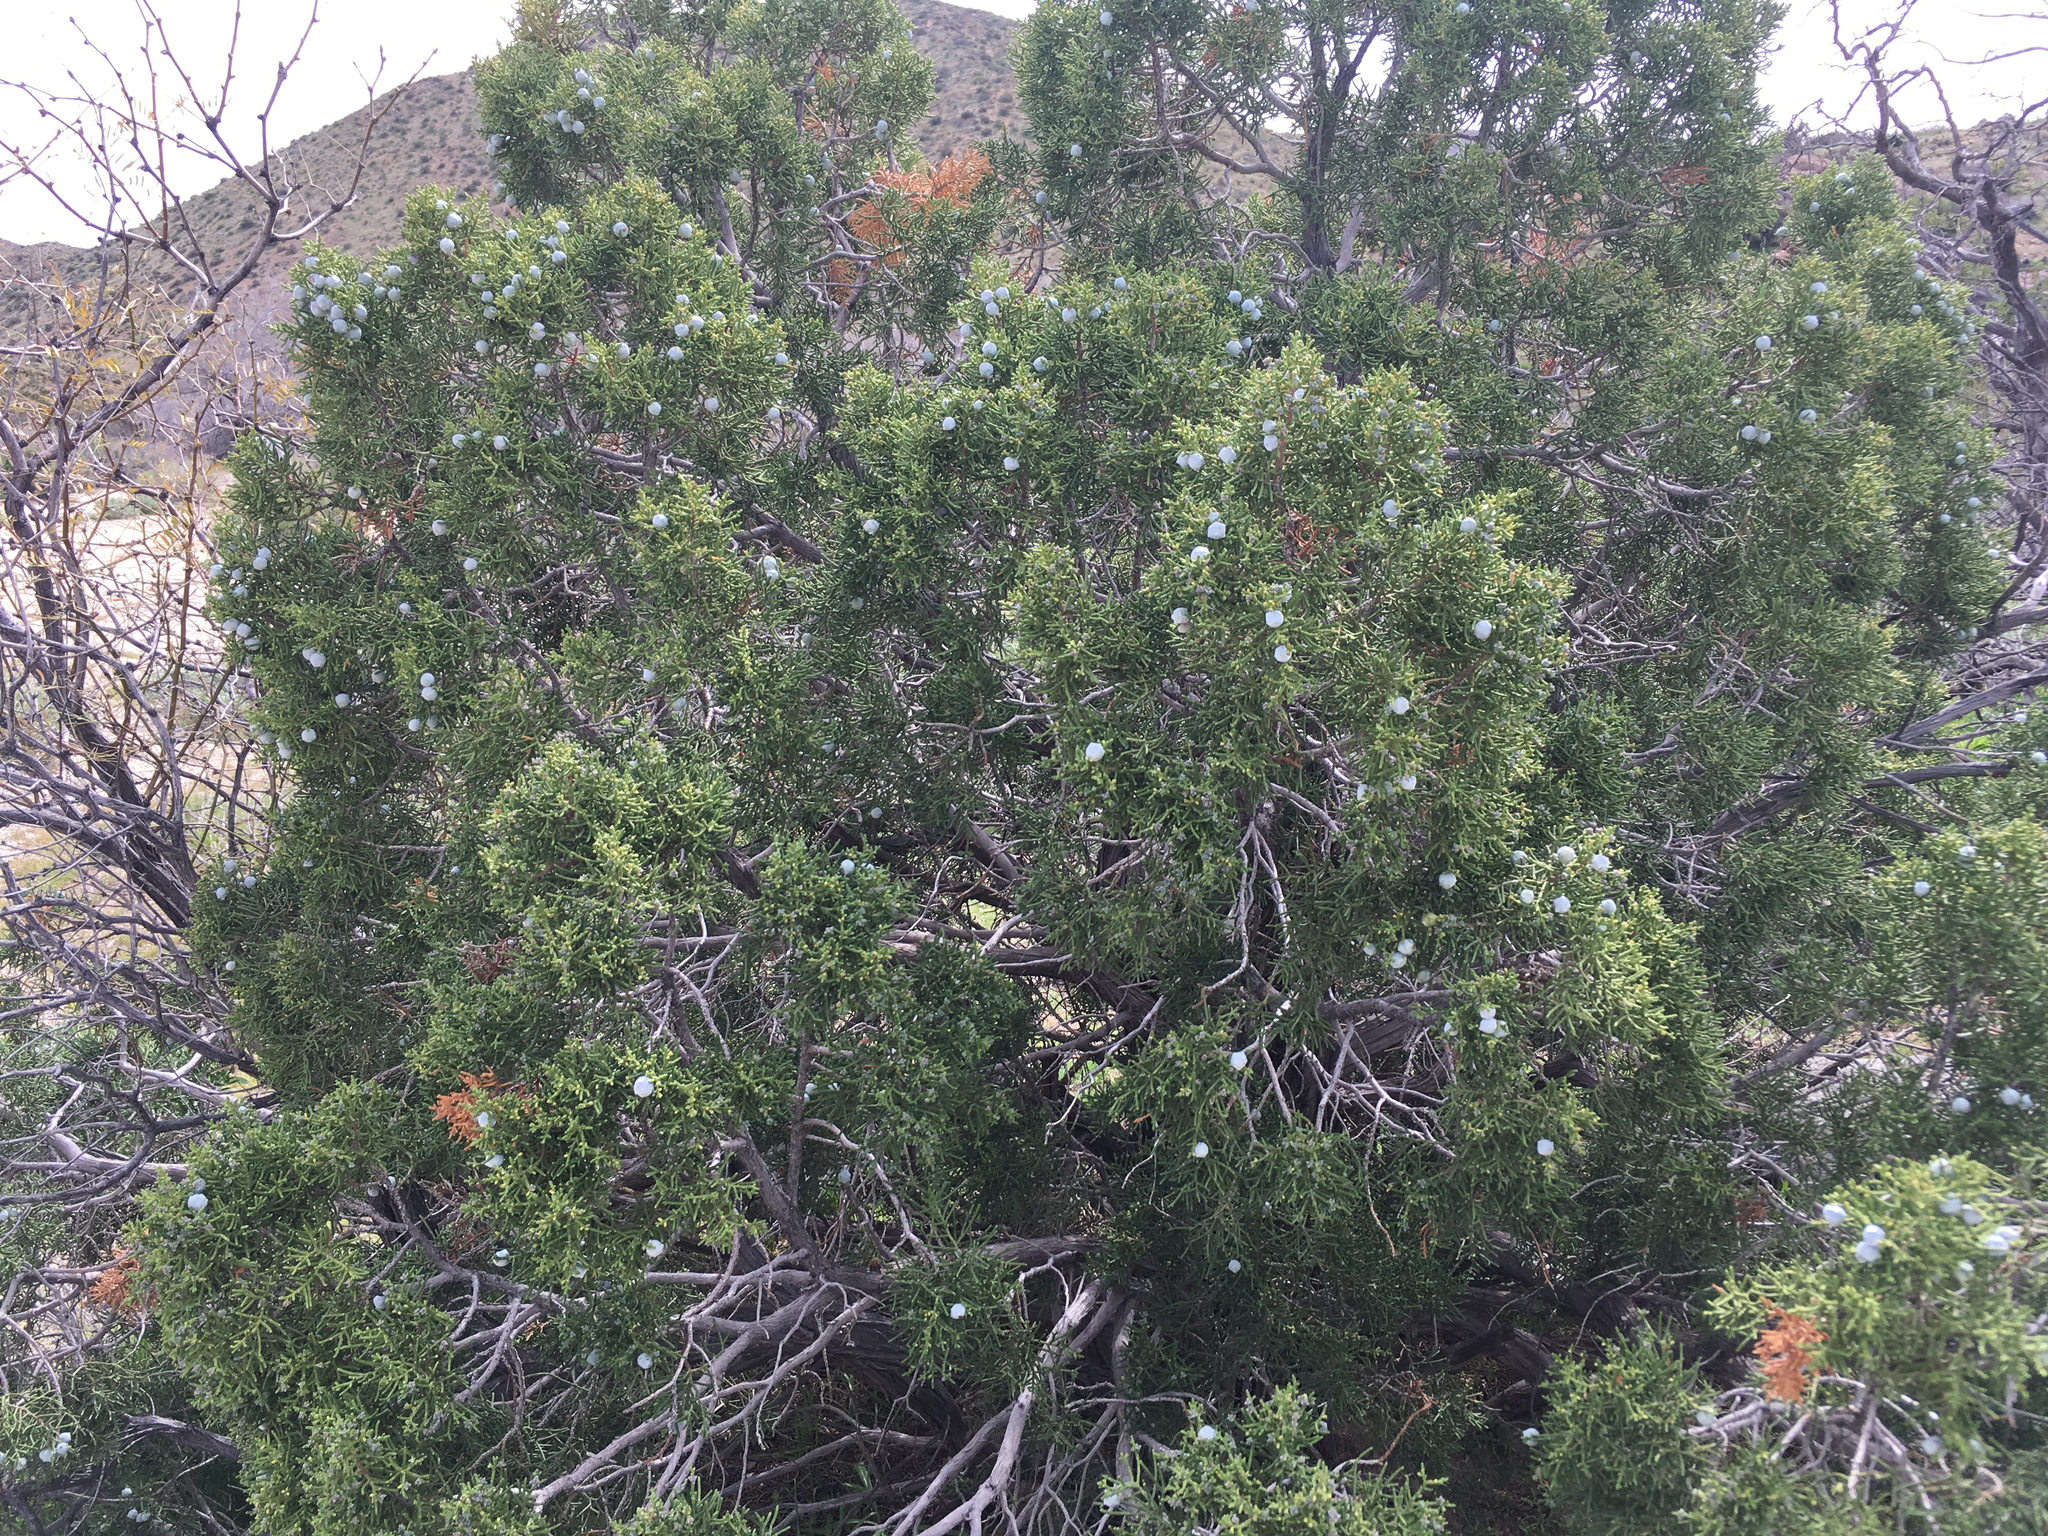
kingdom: Plantae
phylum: Tracheophyta
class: Pinopsida
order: Pinales
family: Cupressaceae
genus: Juniperus
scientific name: Juniperus californica
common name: California juniper
